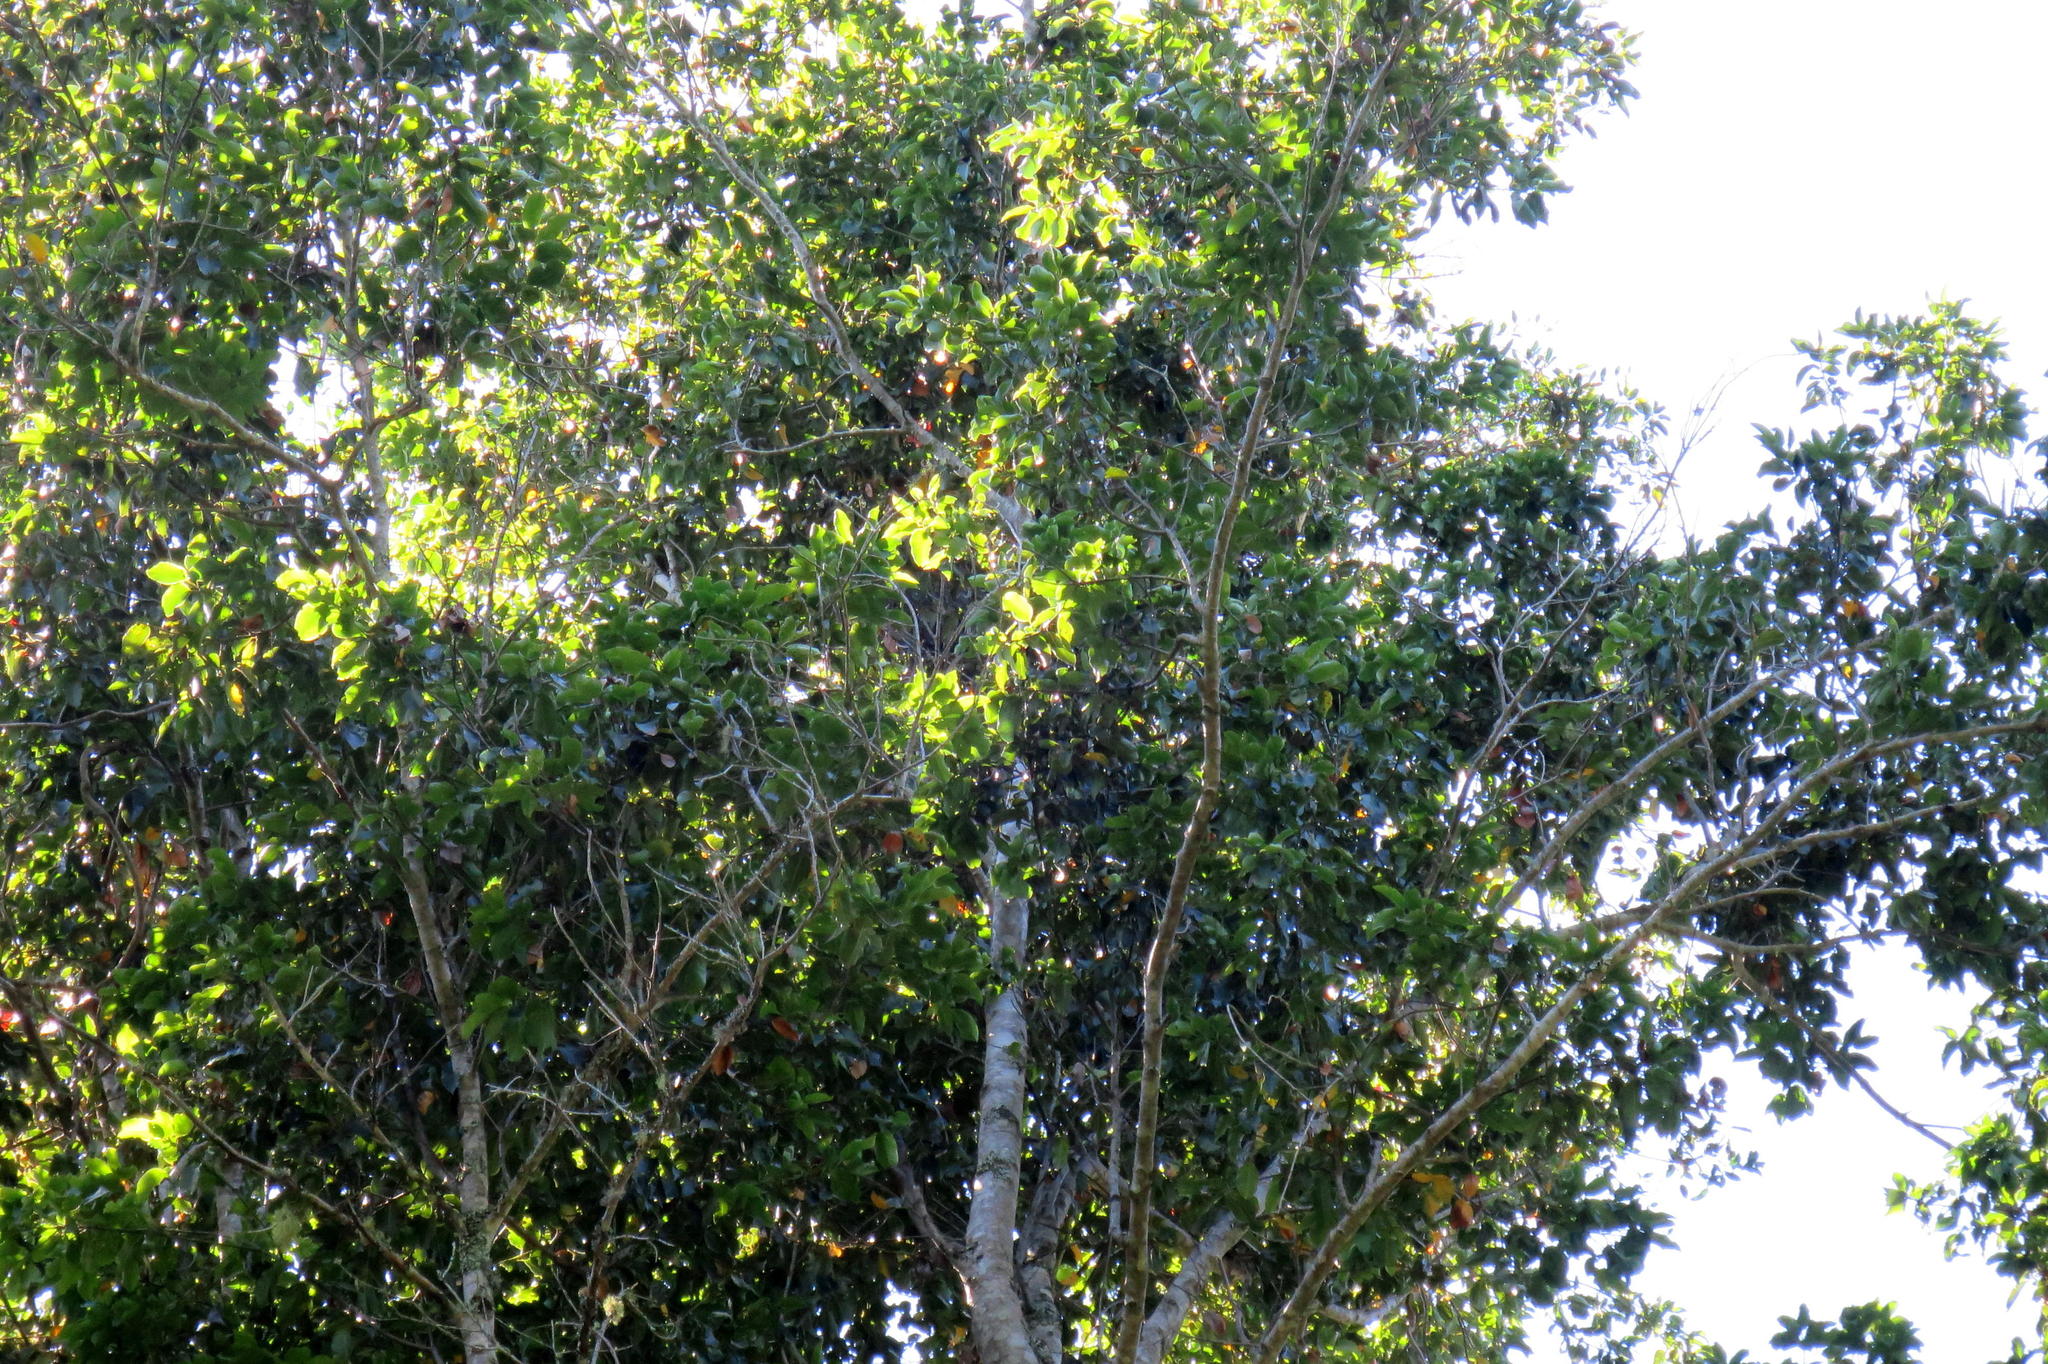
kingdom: Plantae
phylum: Tracheophyta
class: Magnoliopsida
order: Laurales
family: Lauraceae
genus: Ocotea
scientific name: Ocotea bullata
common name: Black stinkwood
